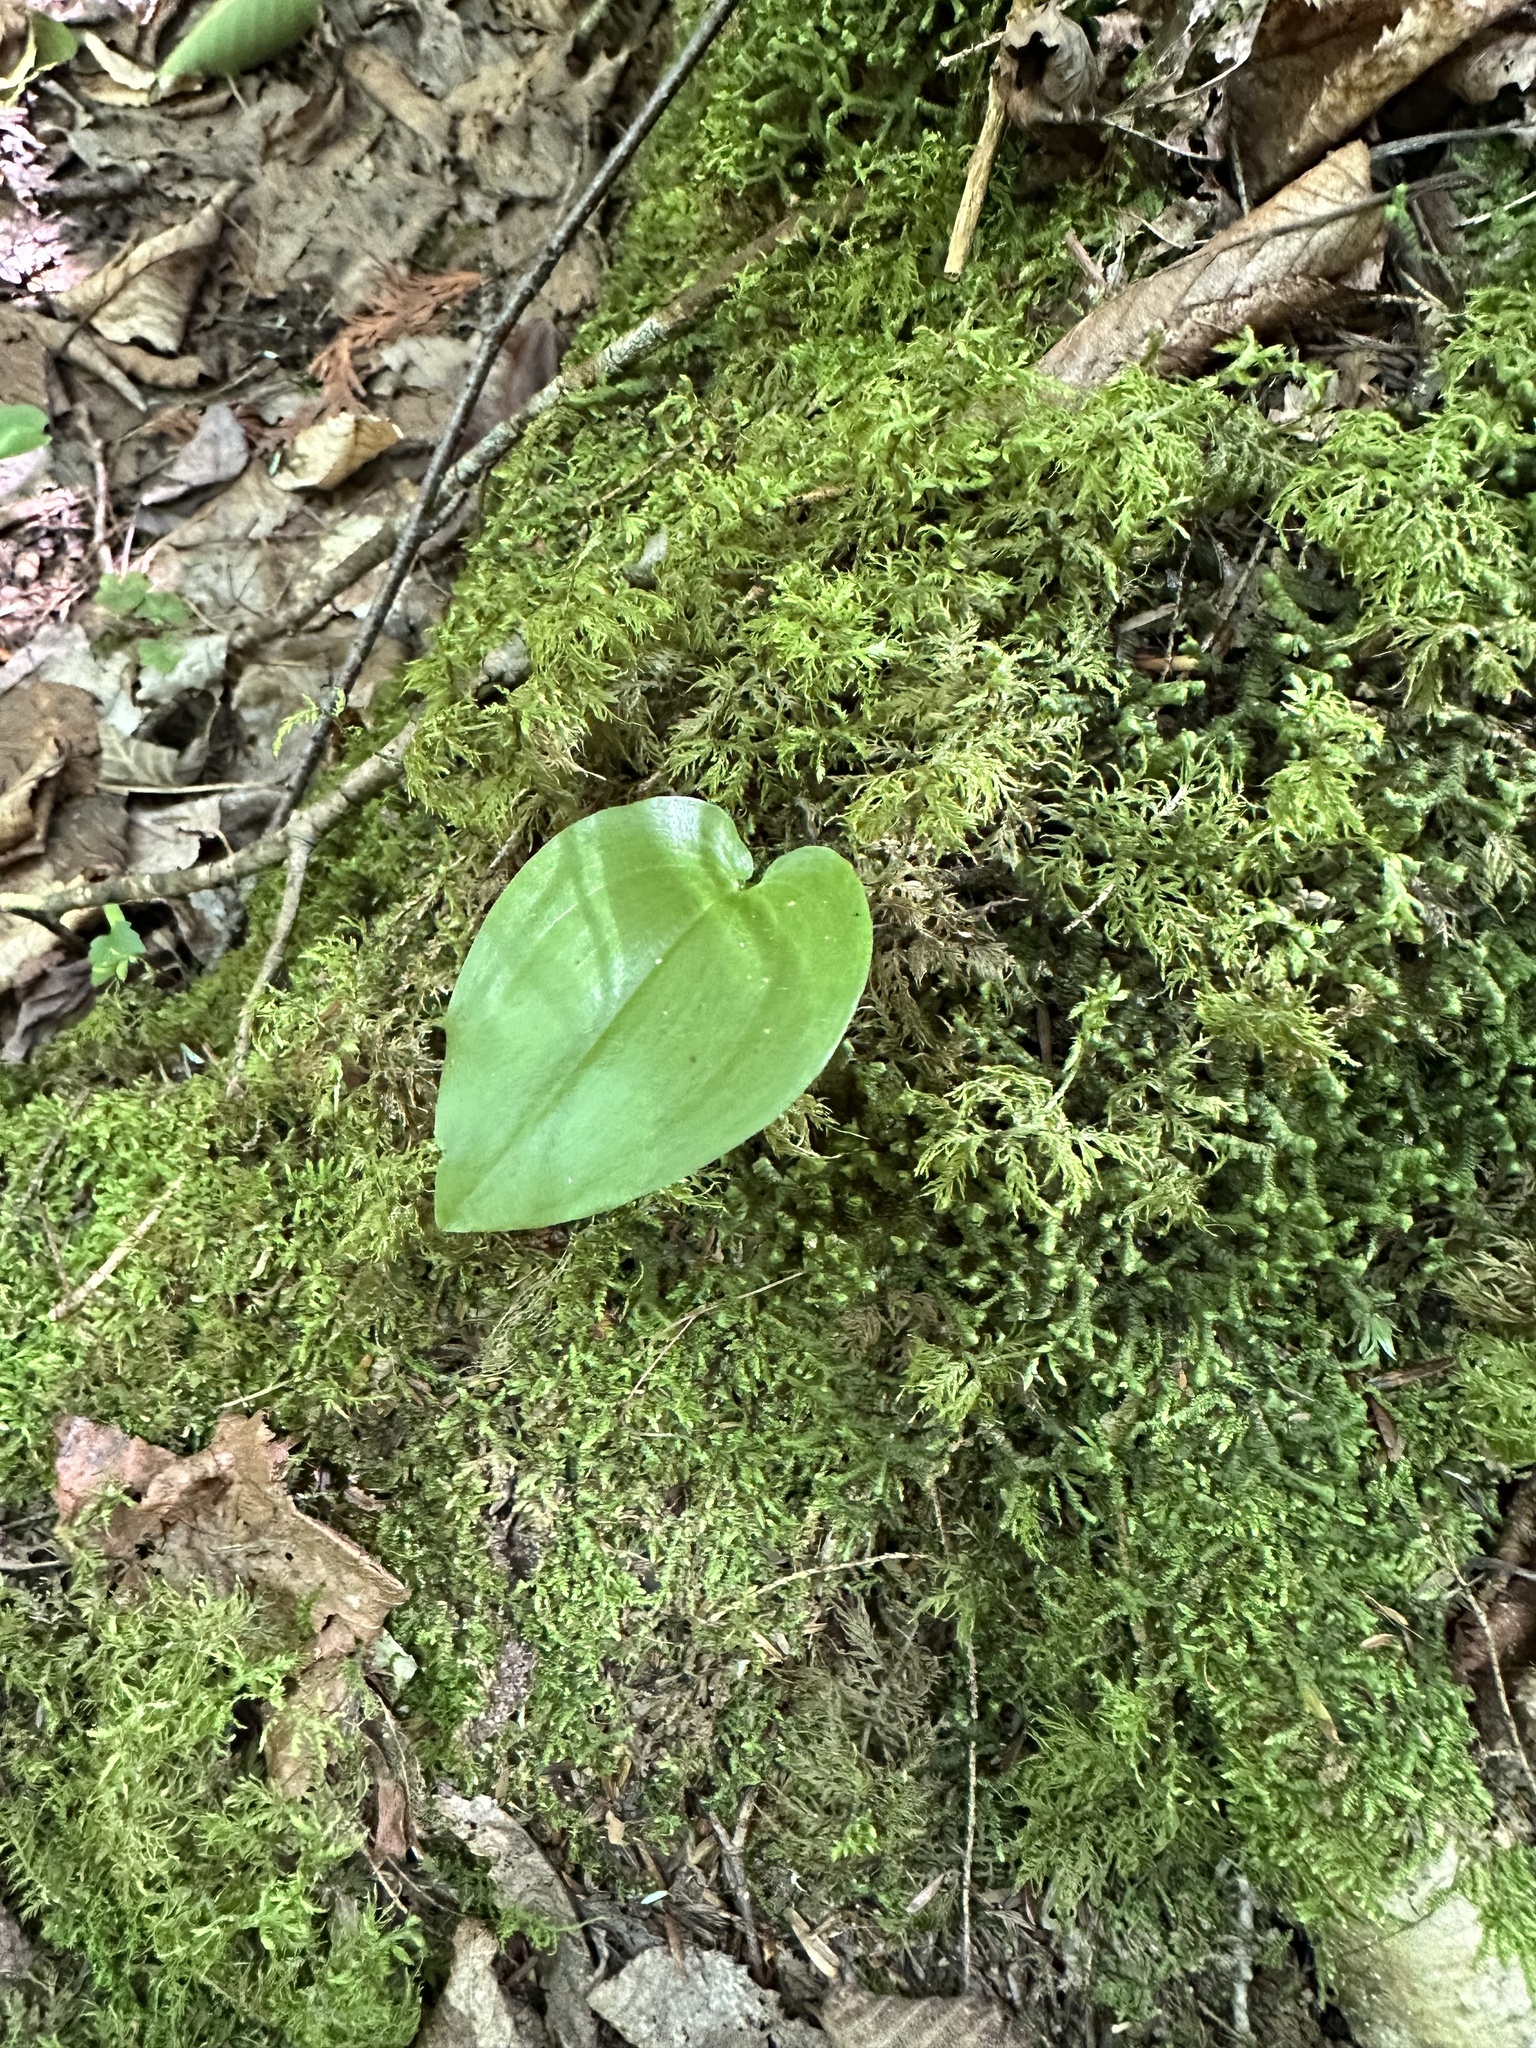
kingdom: Plantae
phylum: Tracheophyta
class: Liliopsida
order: Asparagales
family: Asparagaceae
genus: Maianthemum
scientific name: Maianthemum canadense
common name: False lily-of-the-valley
